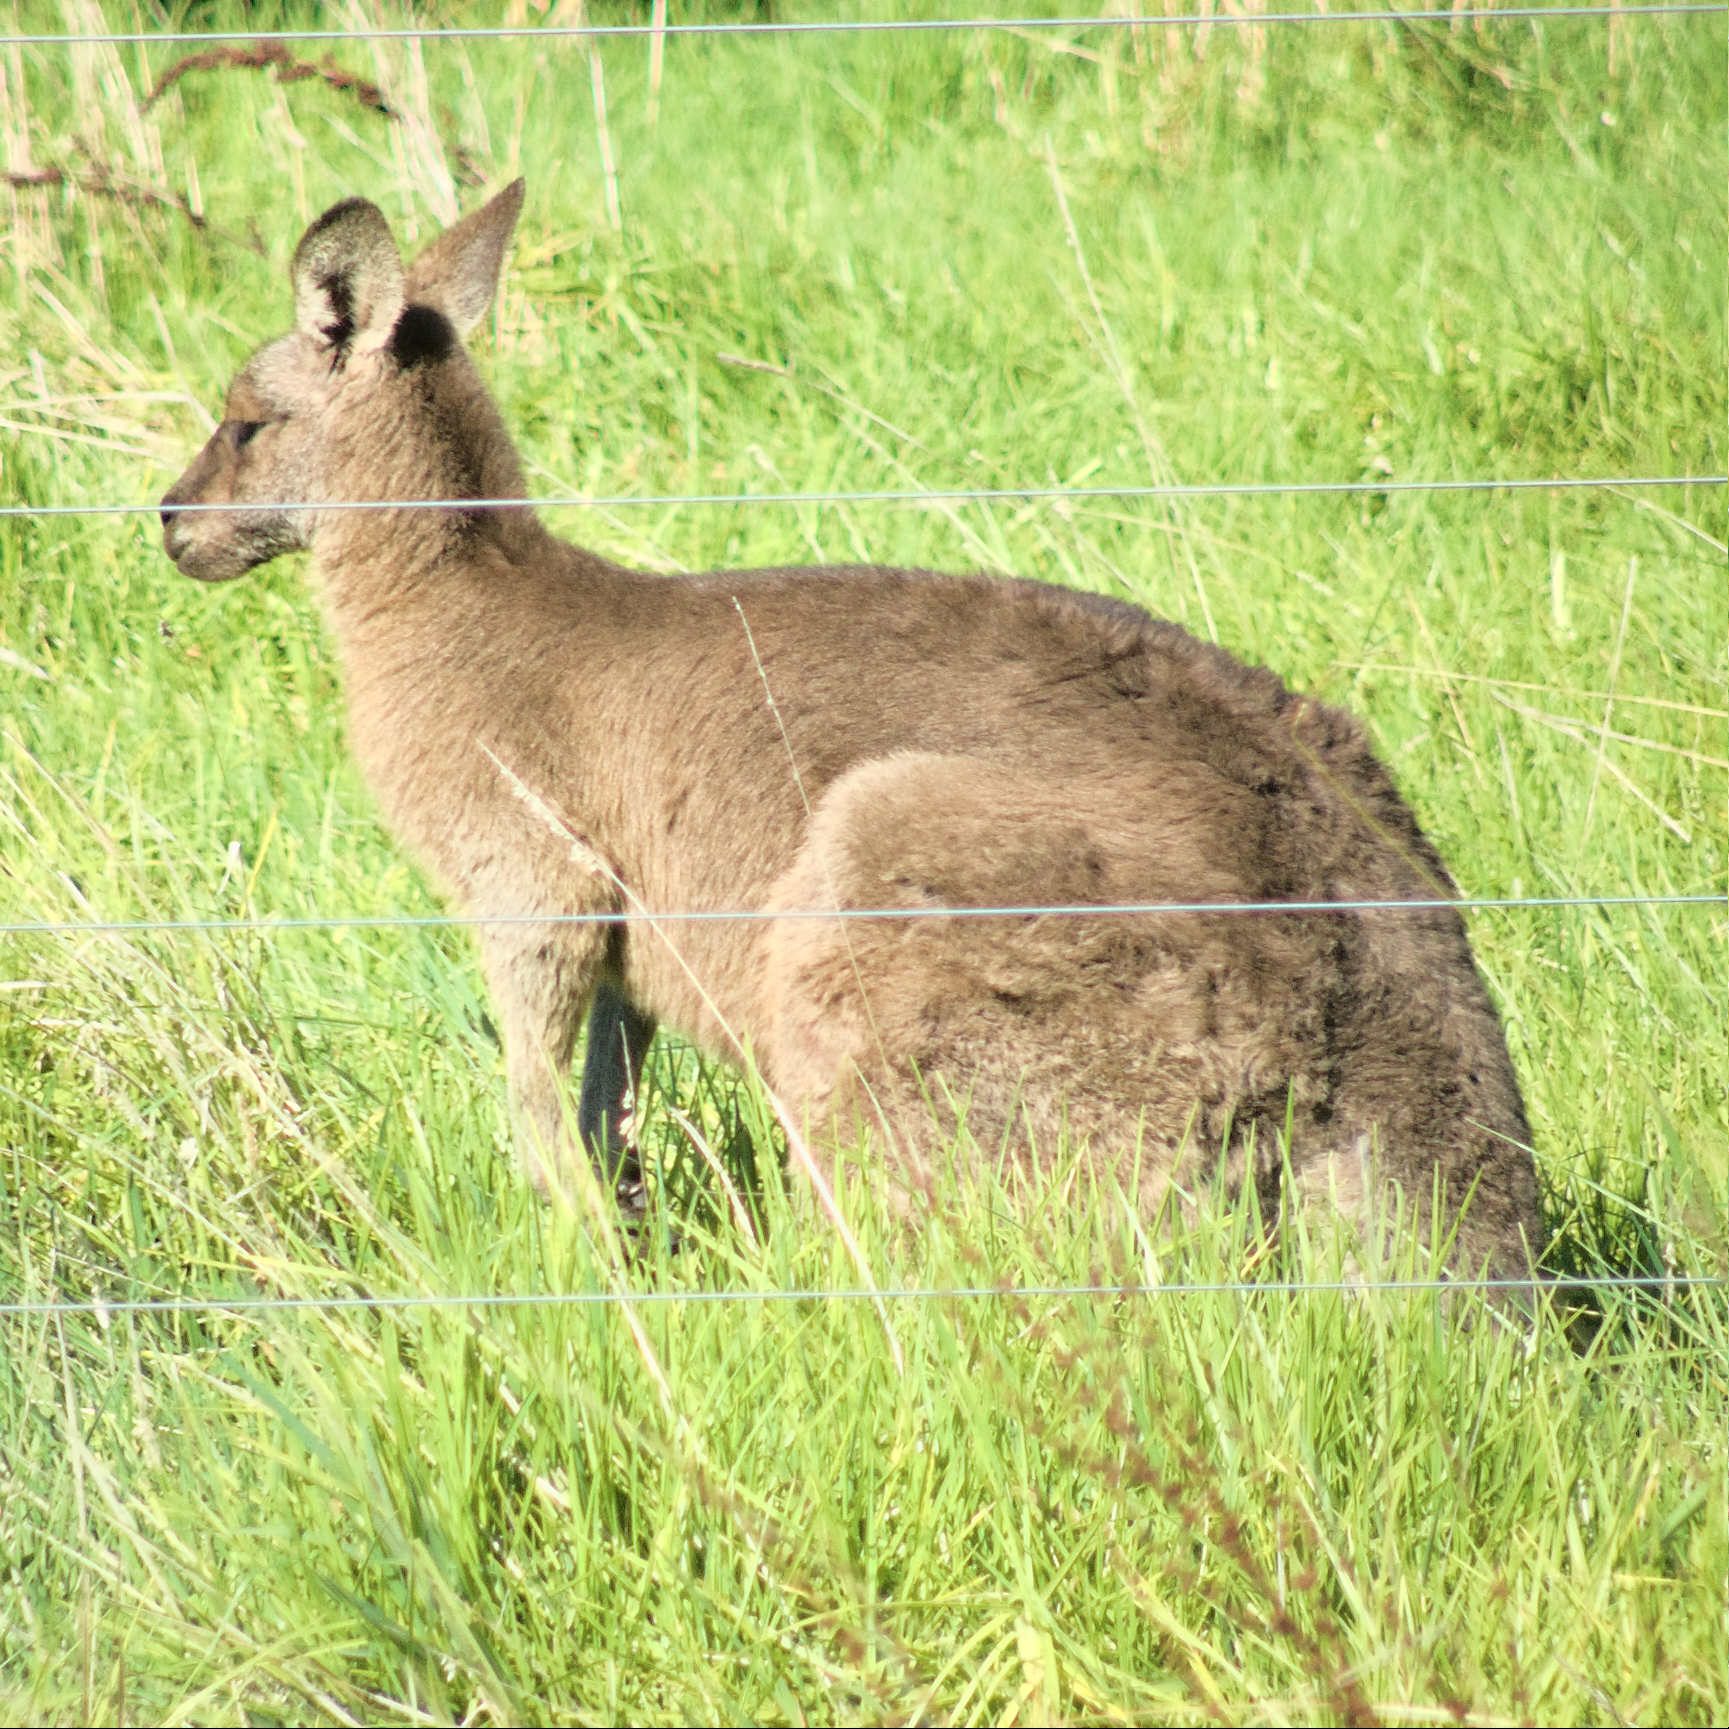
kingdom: Animalia
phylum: Chordata
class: Mammalia
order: Diprotodontia
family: Macropodidae
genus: Macropus
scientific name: Macropus giganteus
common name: Eastern grey kangaroo
